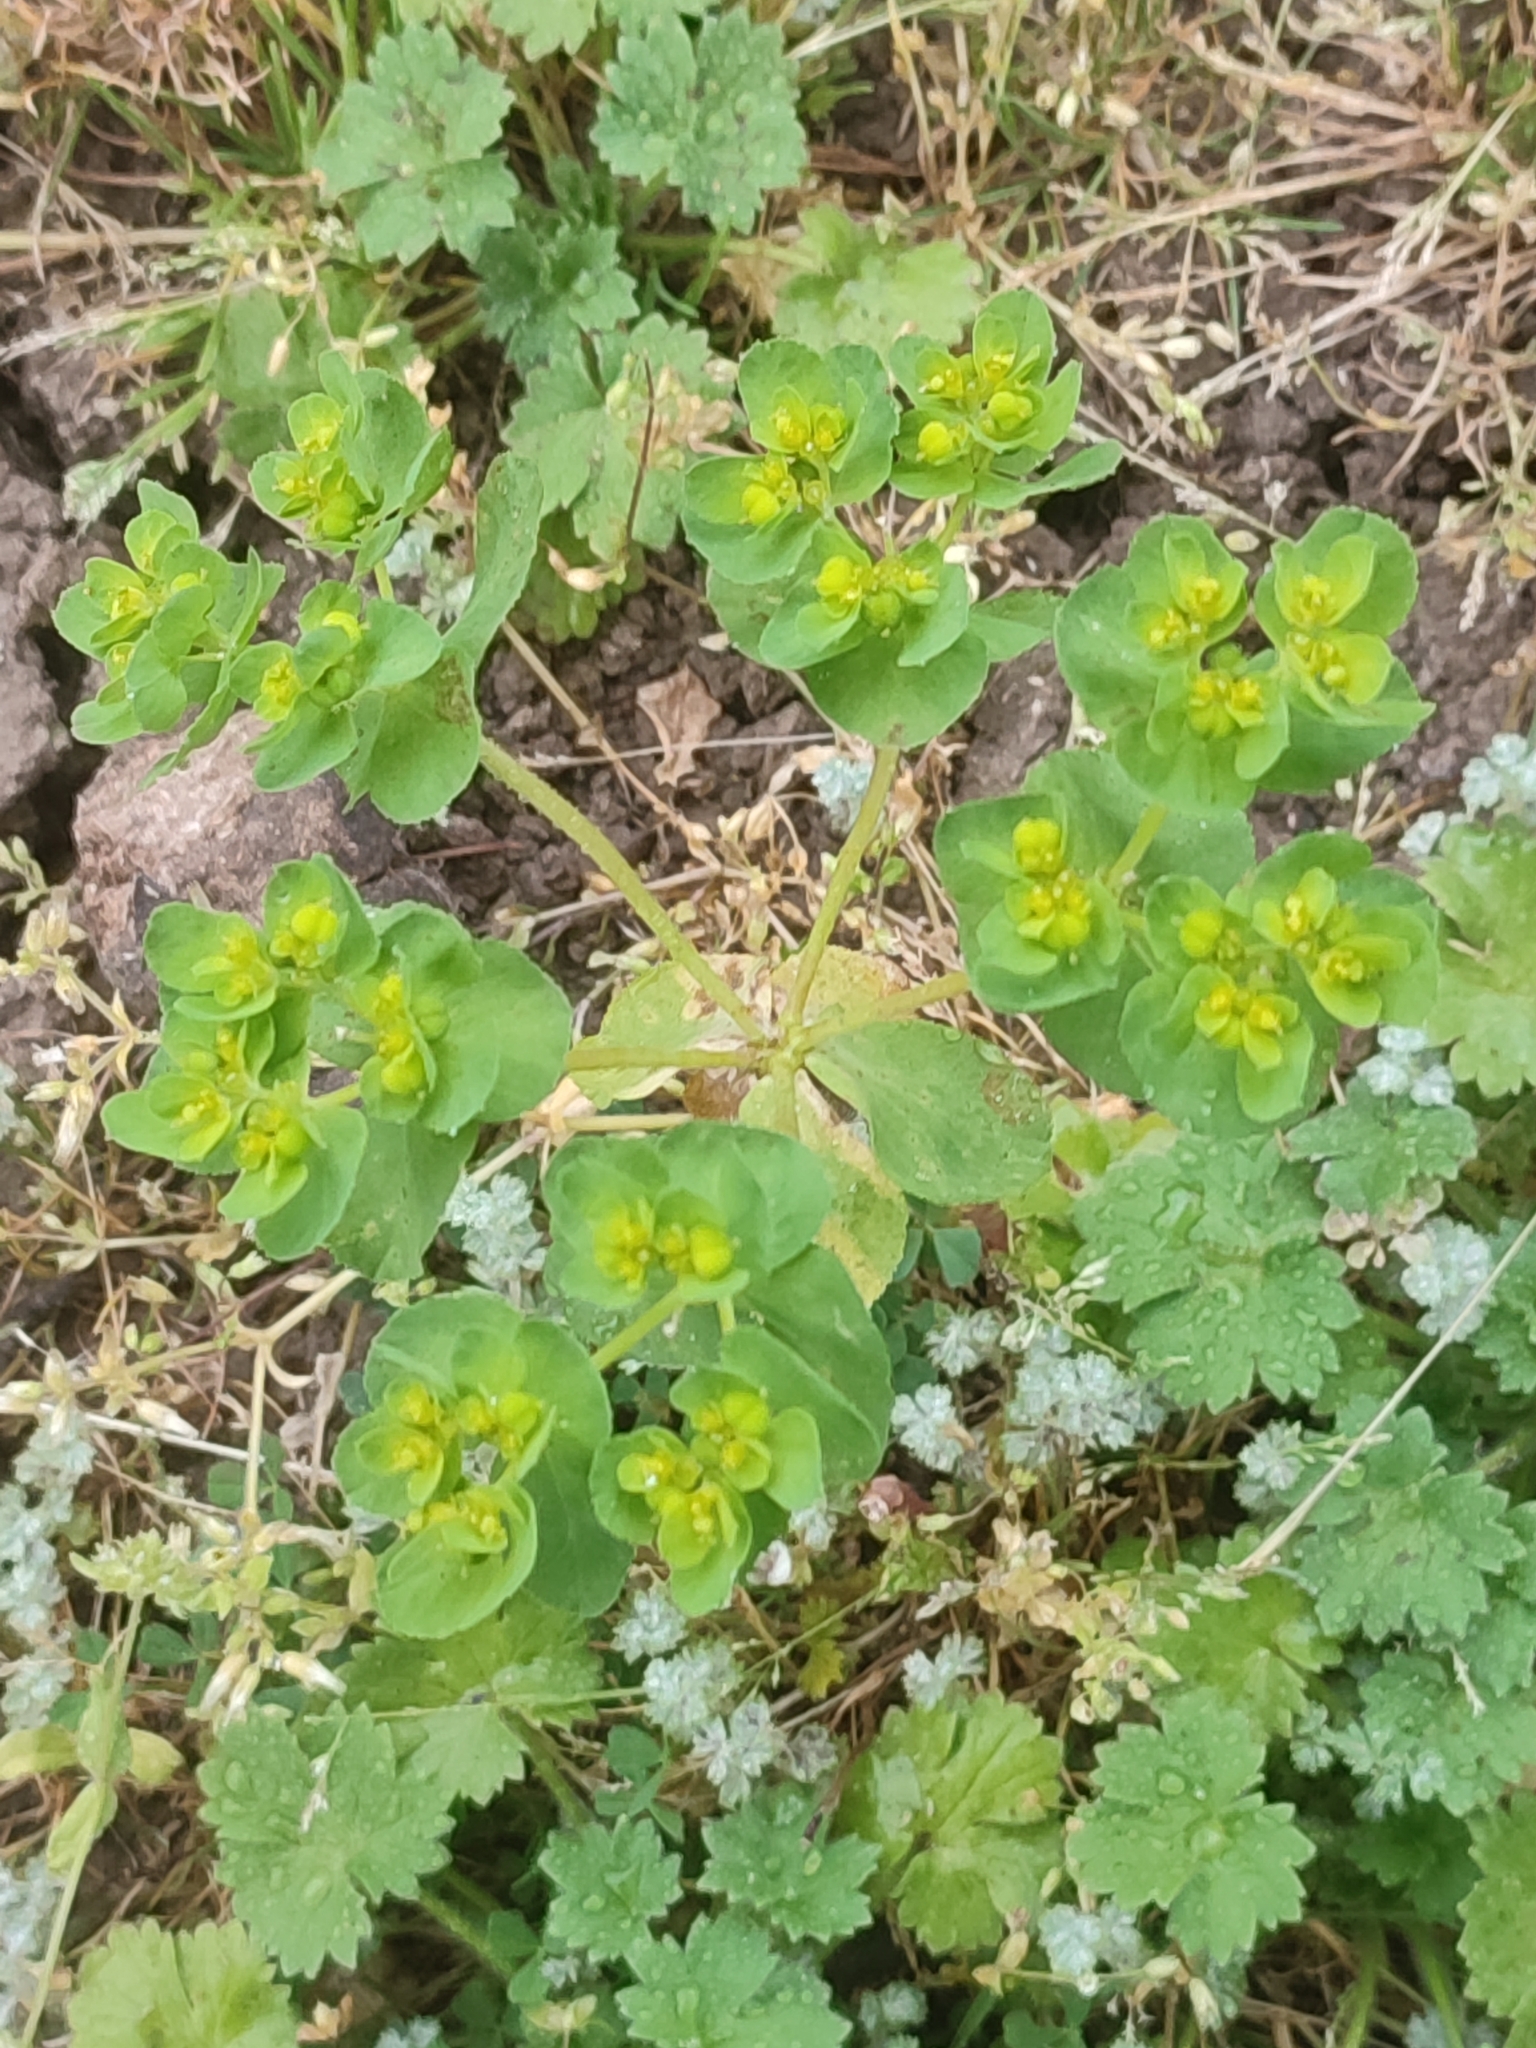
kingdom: Plantae
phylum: Tracheophyta
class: Magnoliopsida
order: Malpighiales
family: Euphorbiaceae
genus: Euphorbia
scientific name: Euphorbia helioscopia
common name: Sun spurge
